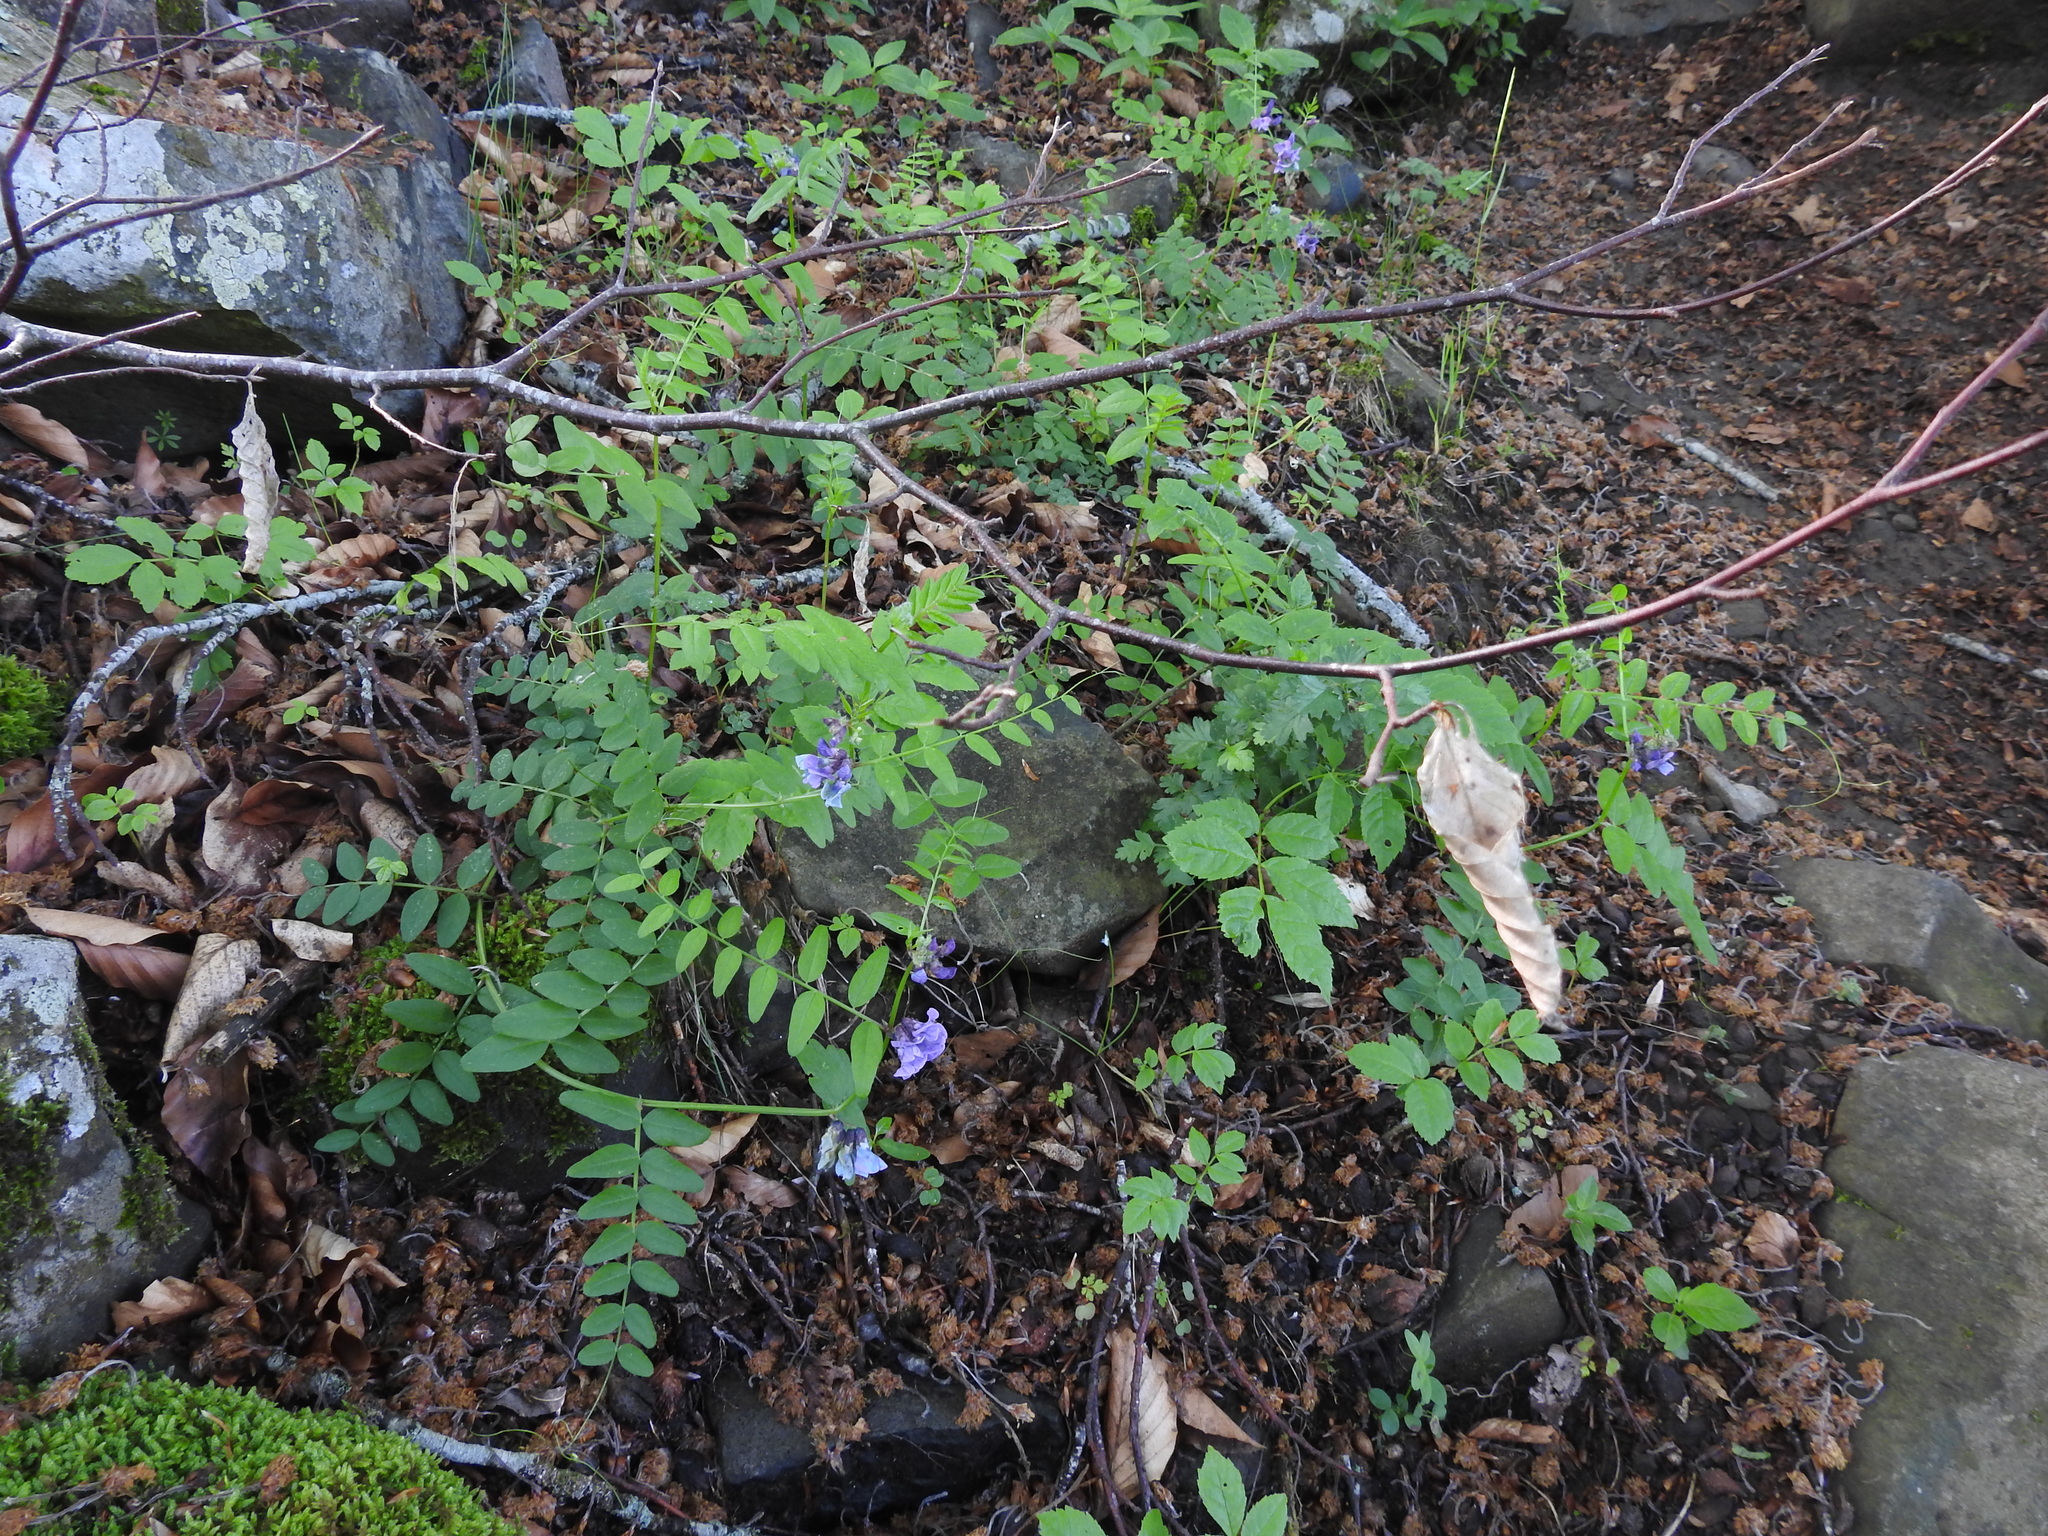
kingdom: Plantae
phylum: Tracheophyta
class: Magnoliopsida
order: Fabales
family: Fabaceae
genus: Vicia
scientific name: Vicia sepium
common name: Bush vetch
